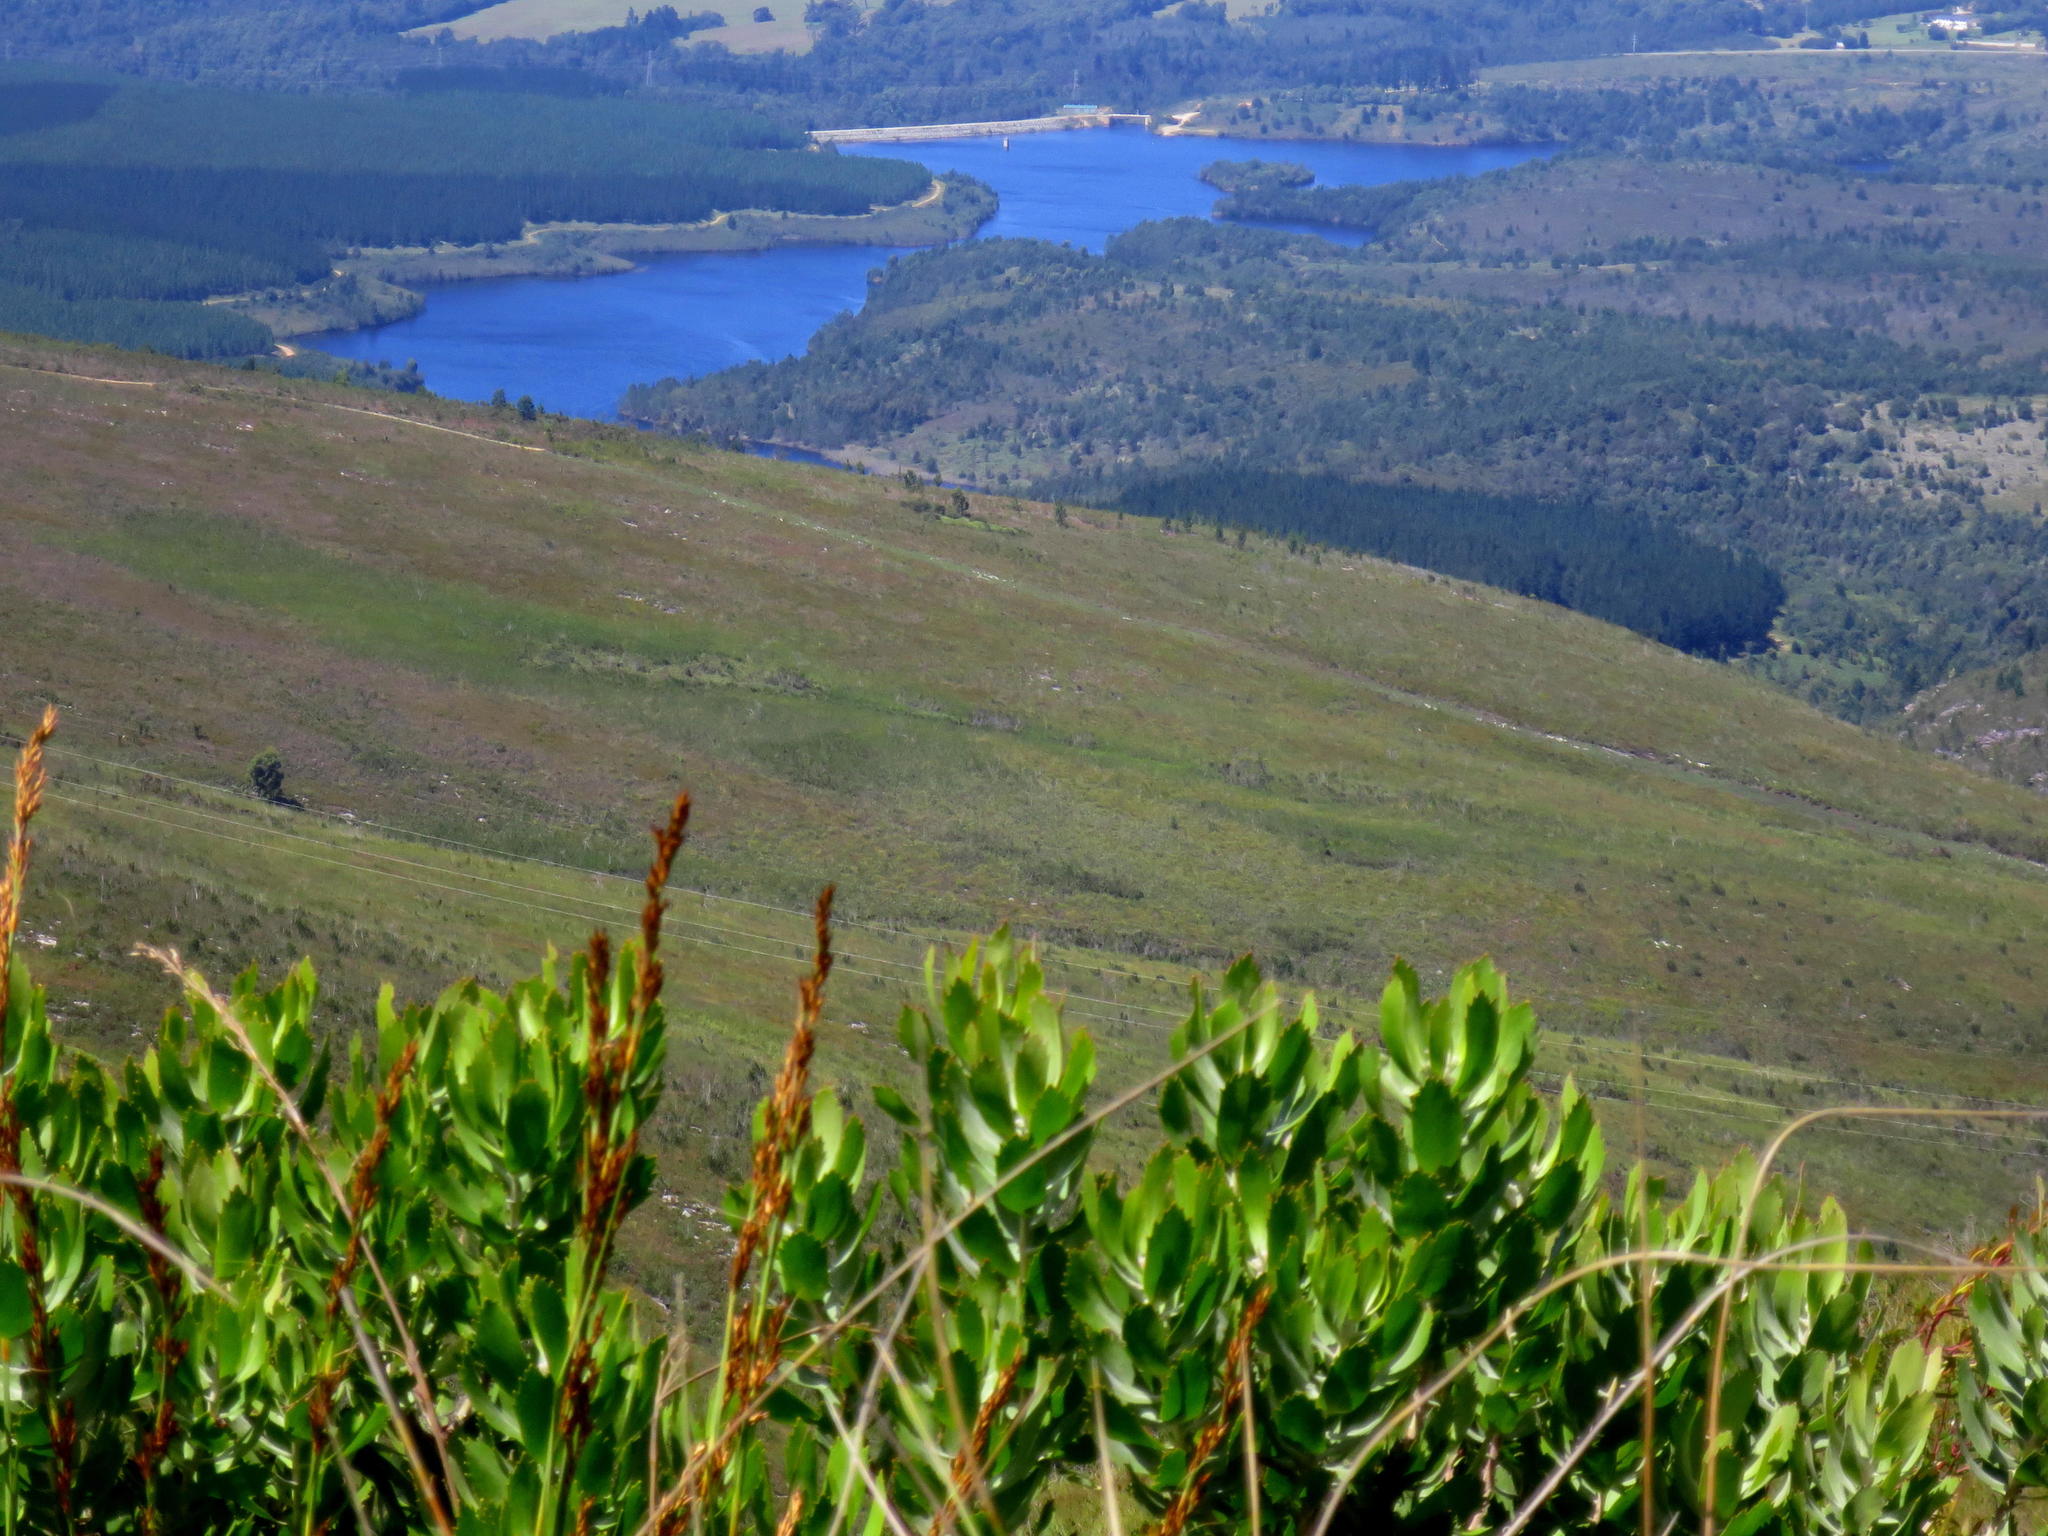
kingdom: Plantae
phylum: Tracheophyta
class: Magnoliopsida
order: Proteales
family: Proteaceae
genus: Leucospermum
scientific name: Leucospermum glabrum
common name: Outeniqua pincushion
